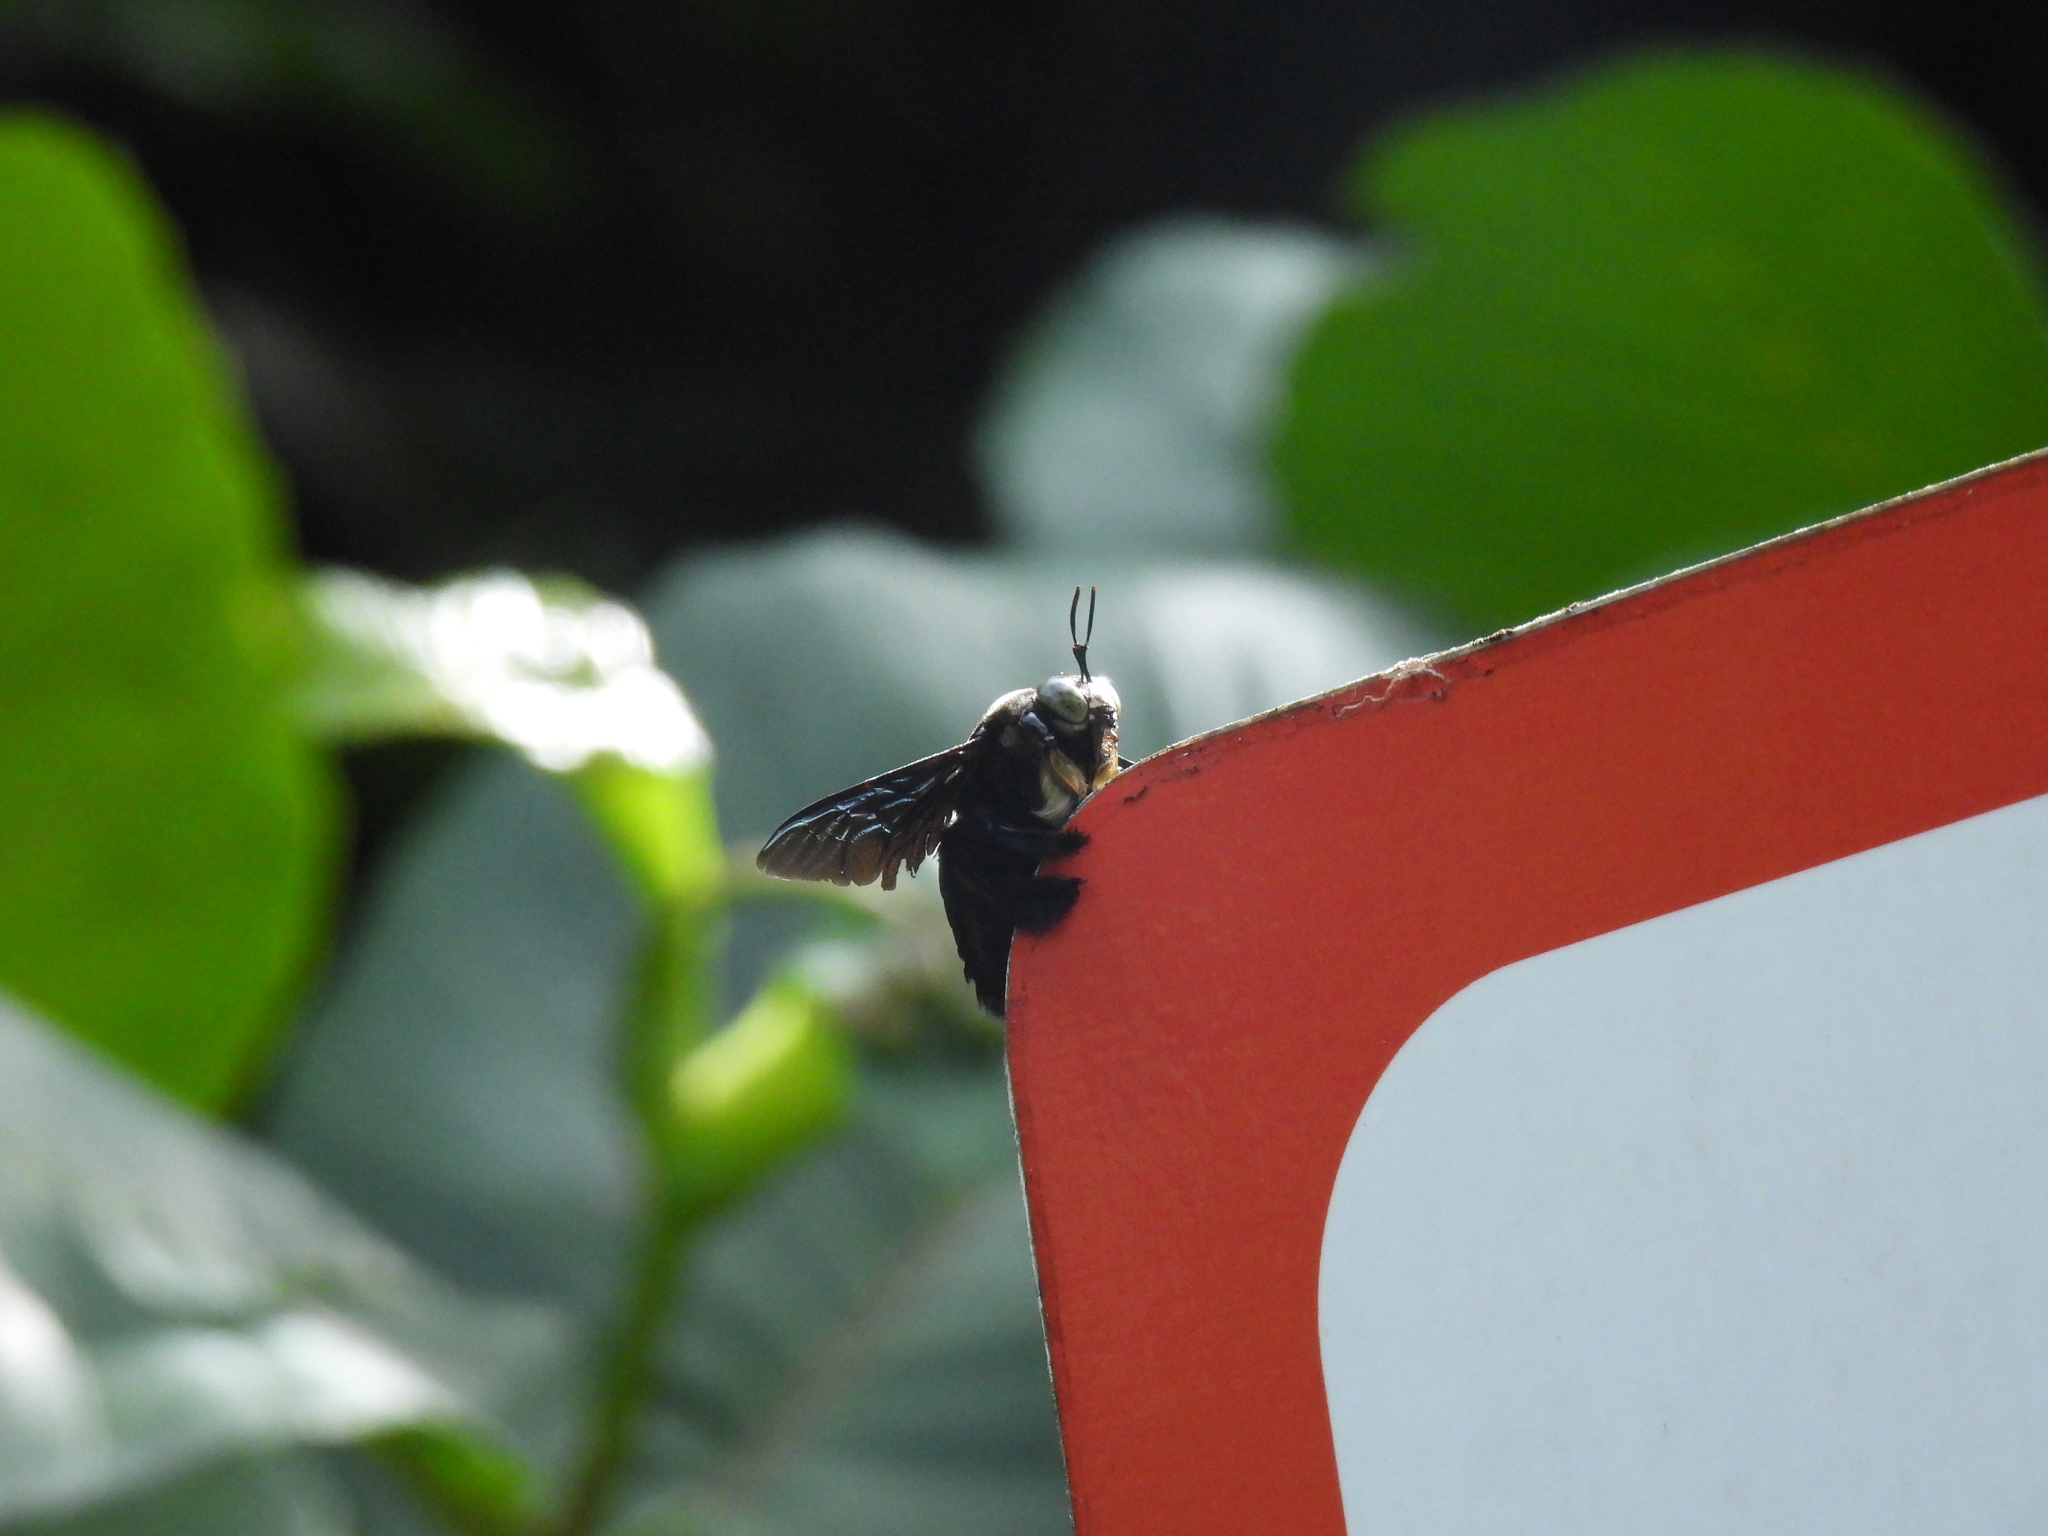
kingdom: Animalia
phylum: Arthropoda
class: Insecta
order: Hymenoptera
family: Apidae
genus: Xylocopa
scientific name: Xylocopa latipes
